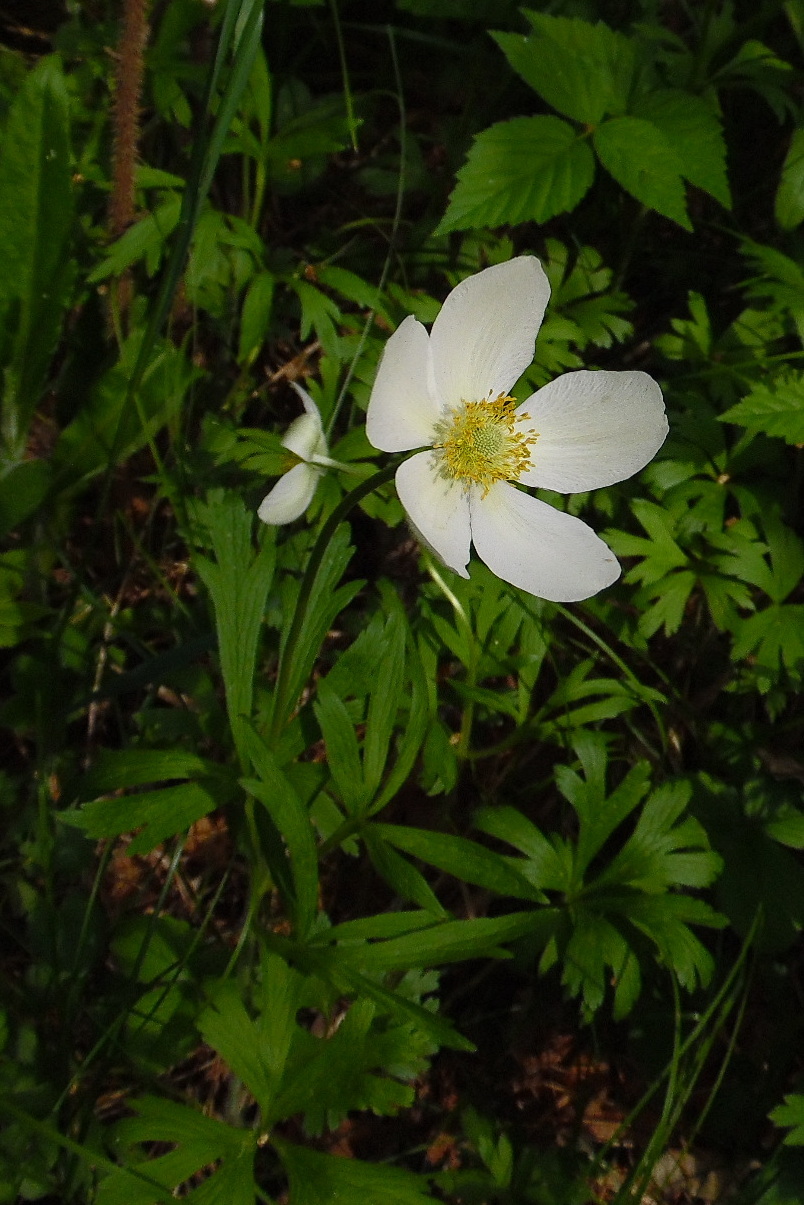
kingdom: Plantae
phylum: Tracheophyta
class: Magnoliopsida
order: Ranunculales
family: Ranunculaceae
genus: Anemone
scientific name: Anemone sylvestris
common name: Snowdrop anemone
